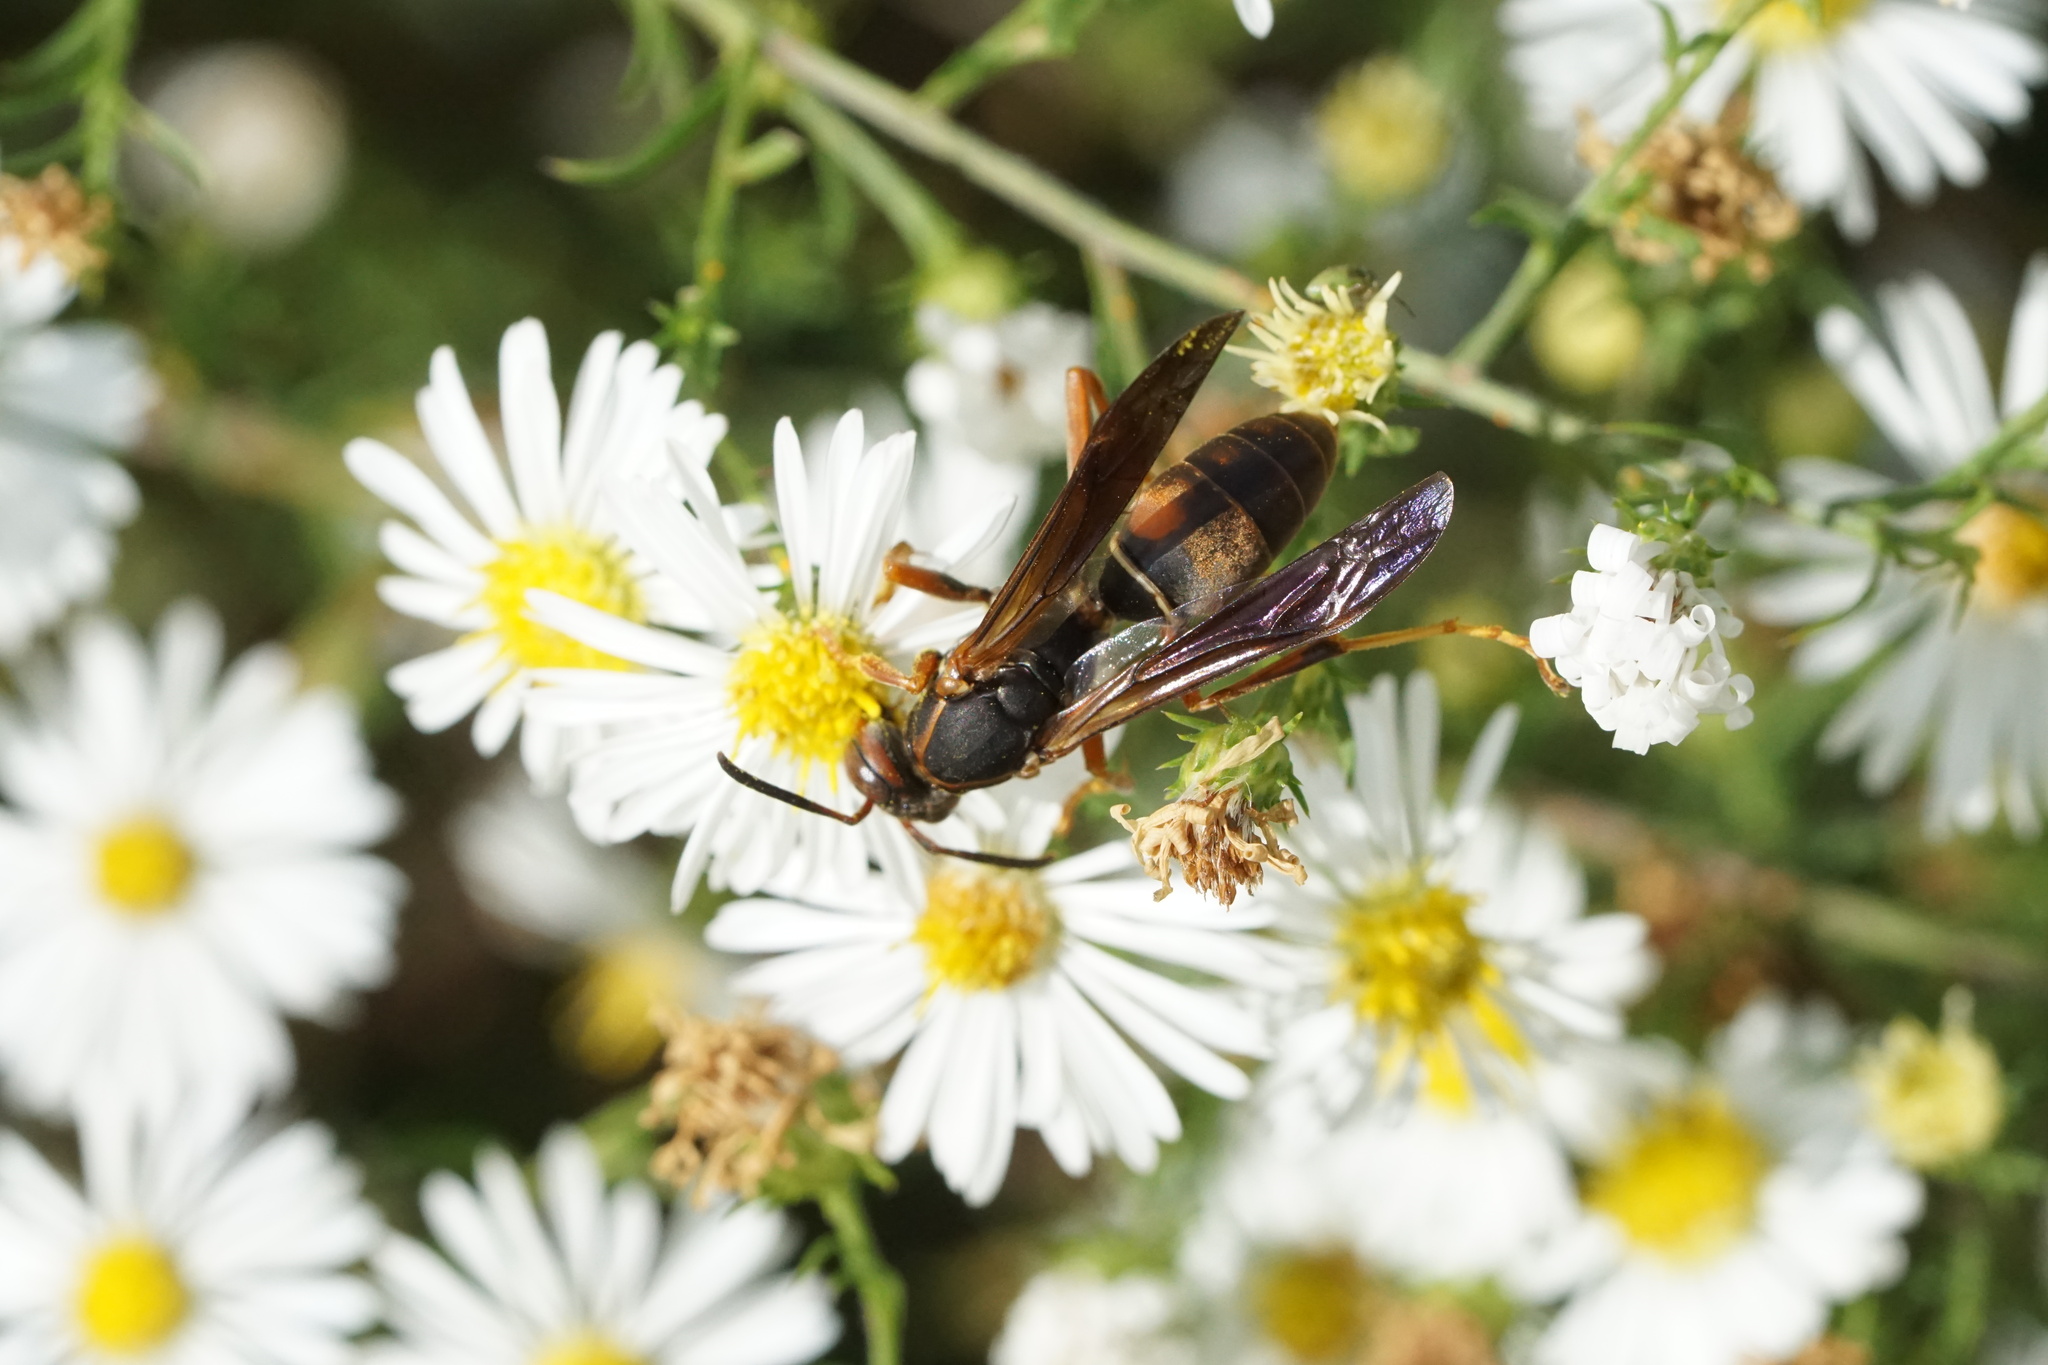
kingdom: Animalia
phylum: Arthropoda
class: Insecta
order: Hymenoptera
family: Eumenidae
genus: Polistes
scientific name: Polistes fuscatus
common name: Dark paper wasp
